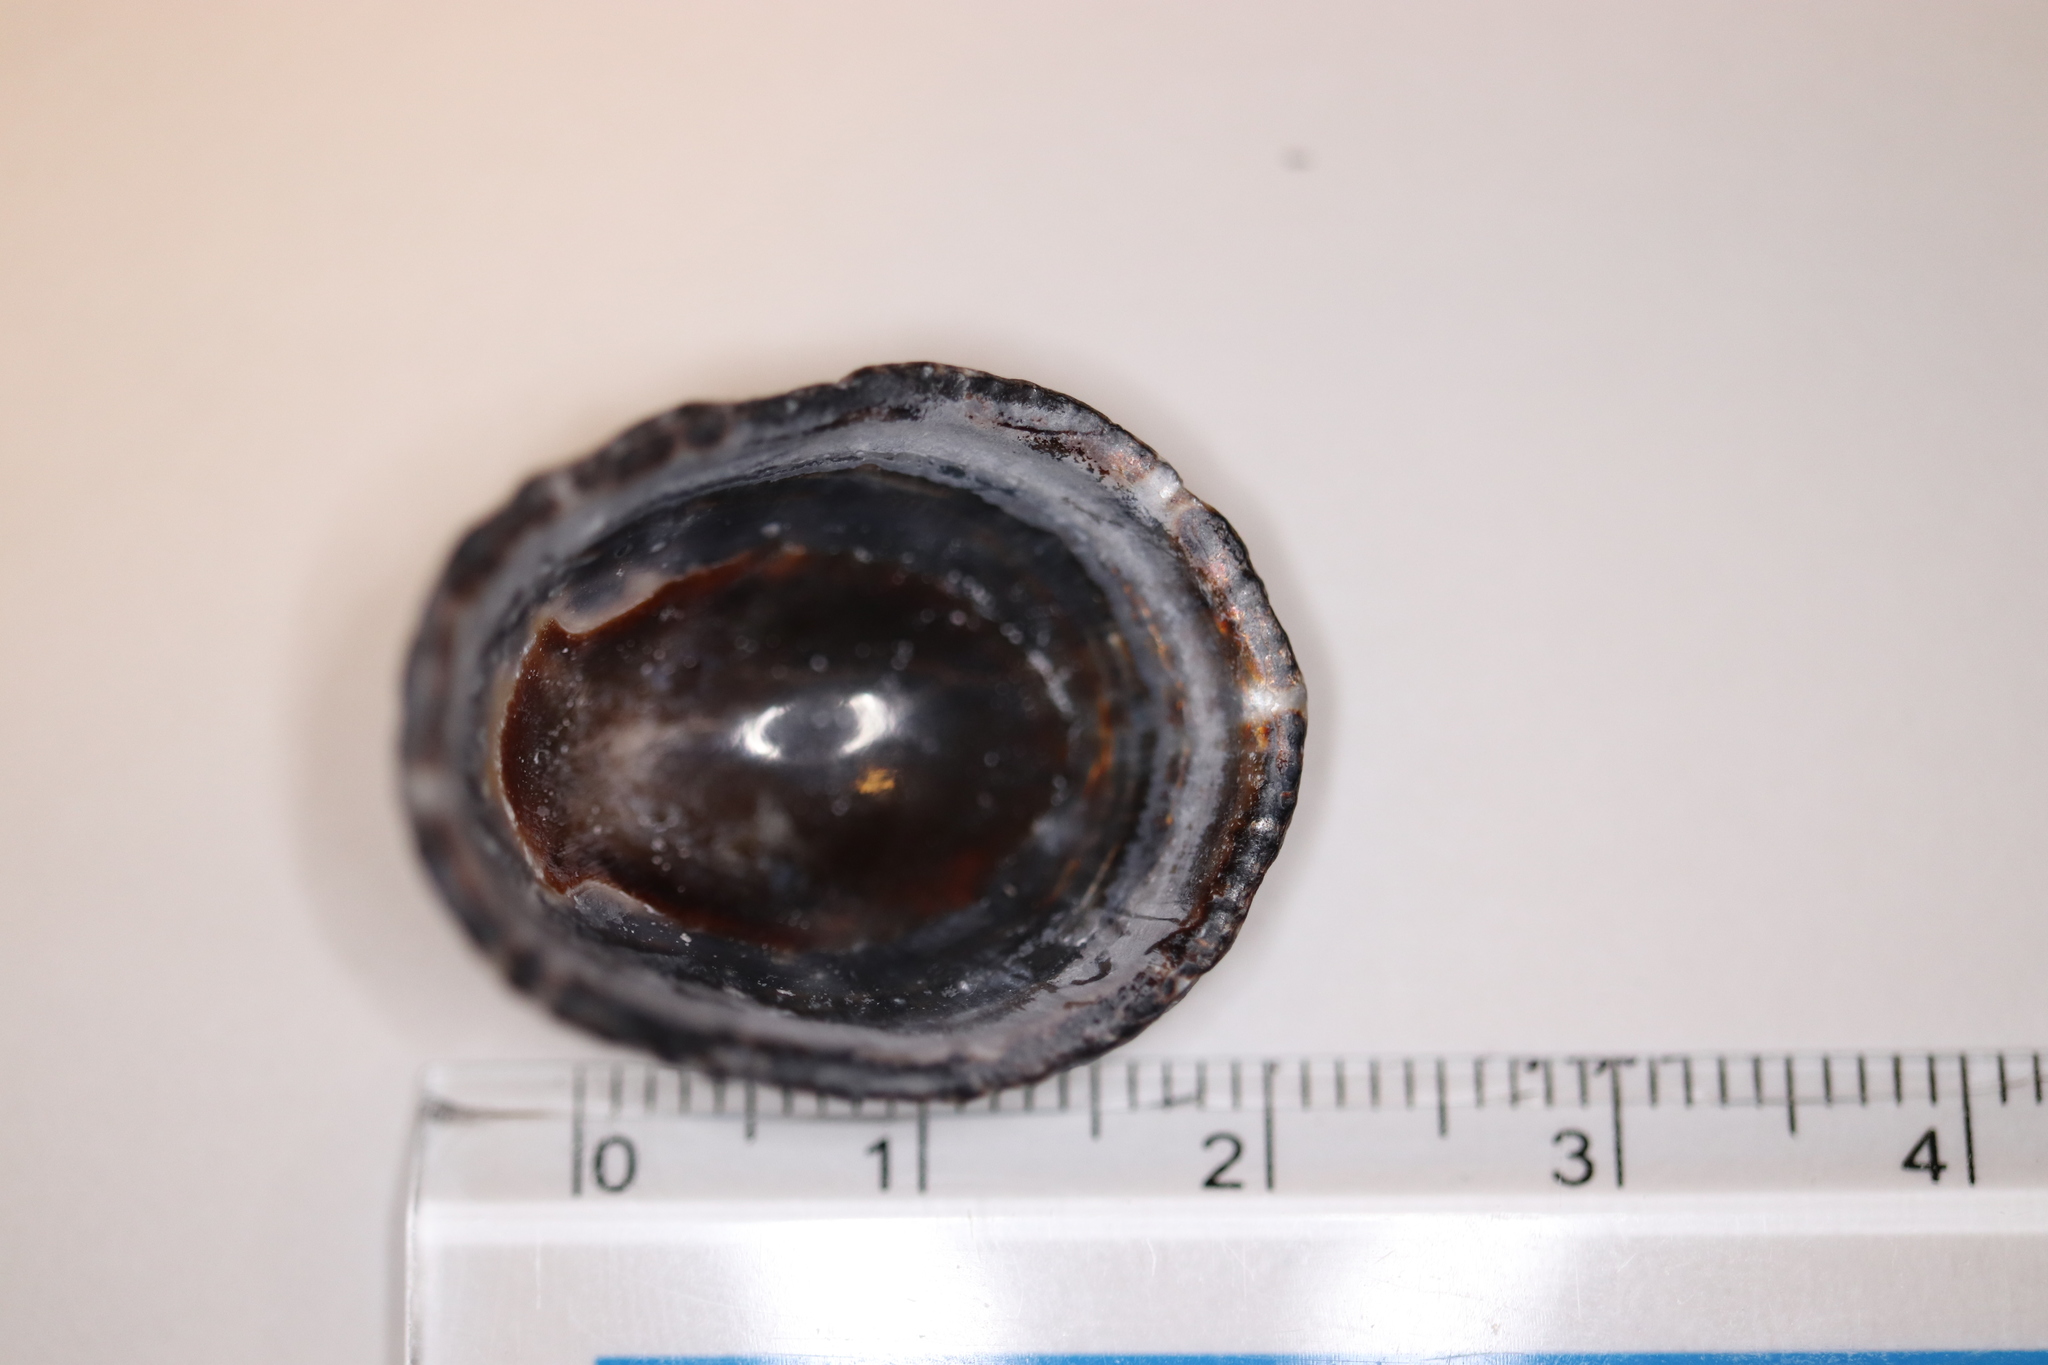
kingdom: Animalia
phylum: Mollusca
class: Gastropoda
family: Nacellidae
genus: Cellana
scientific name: Cellana grata
